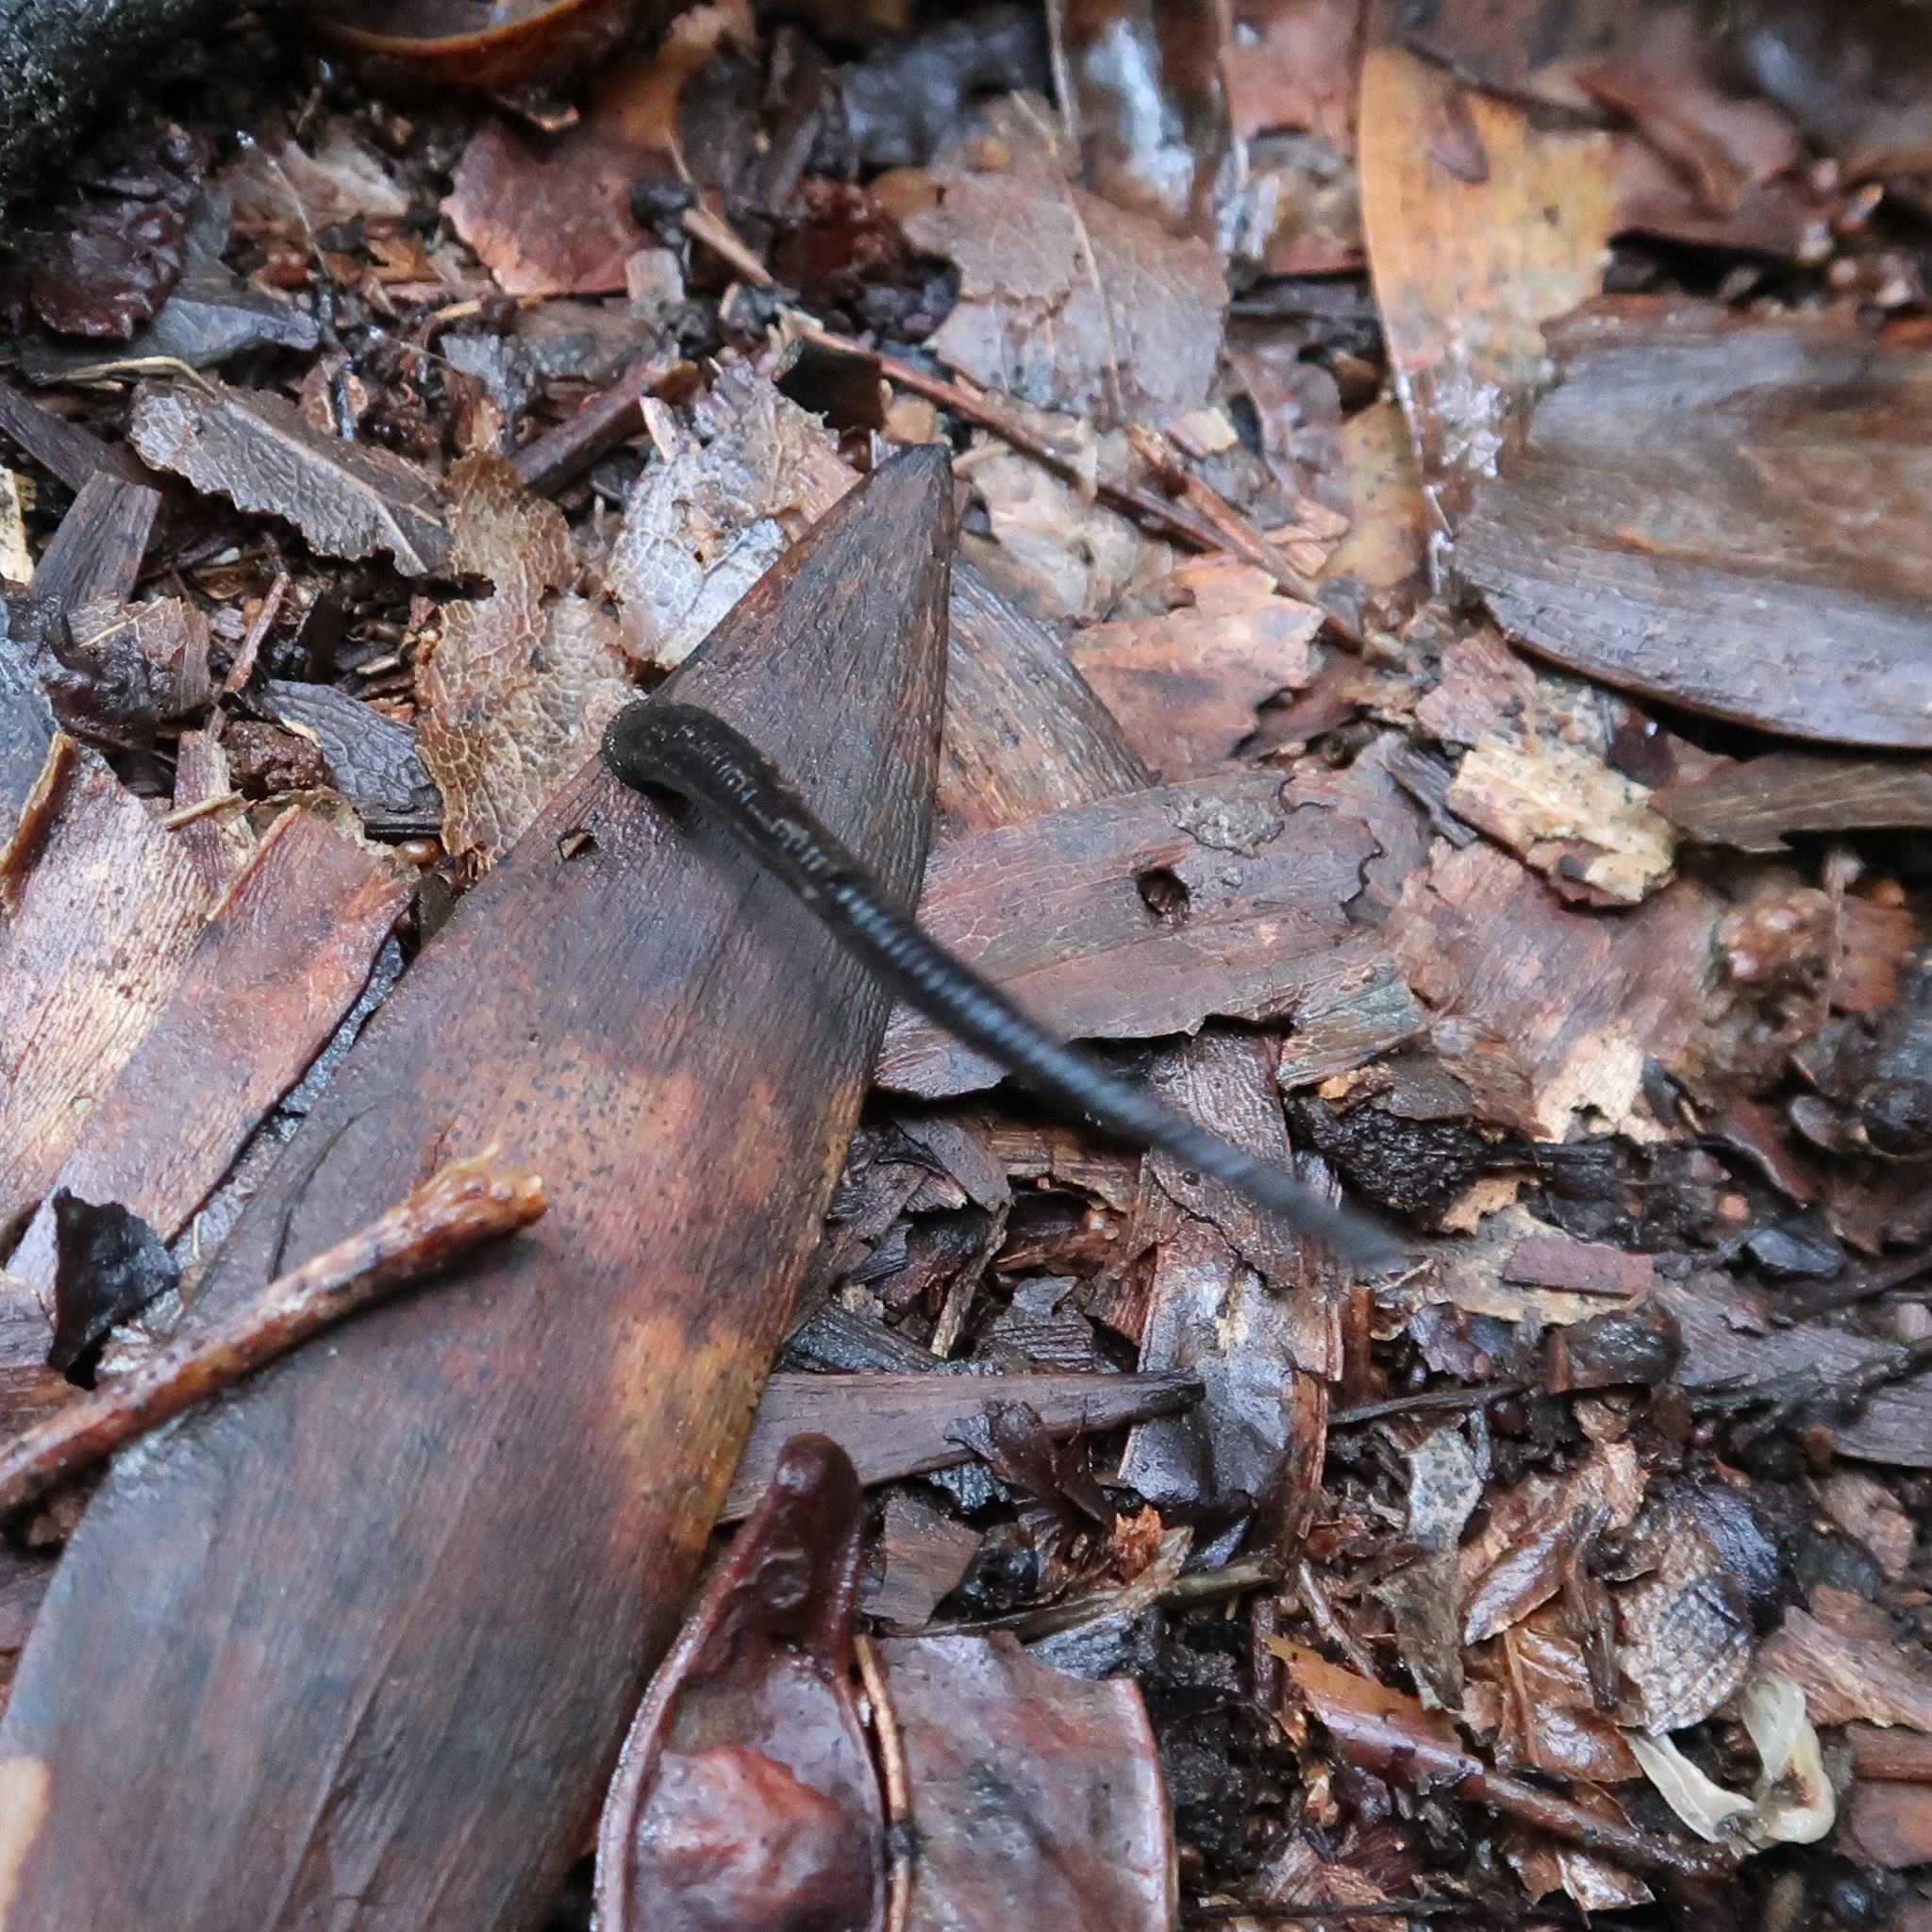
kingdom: Animalia
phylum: Annelida
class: Clitellata
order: Arhynchobdellida
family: Haemadipsidae
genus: Philaemon
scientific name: Philaemon pungens
